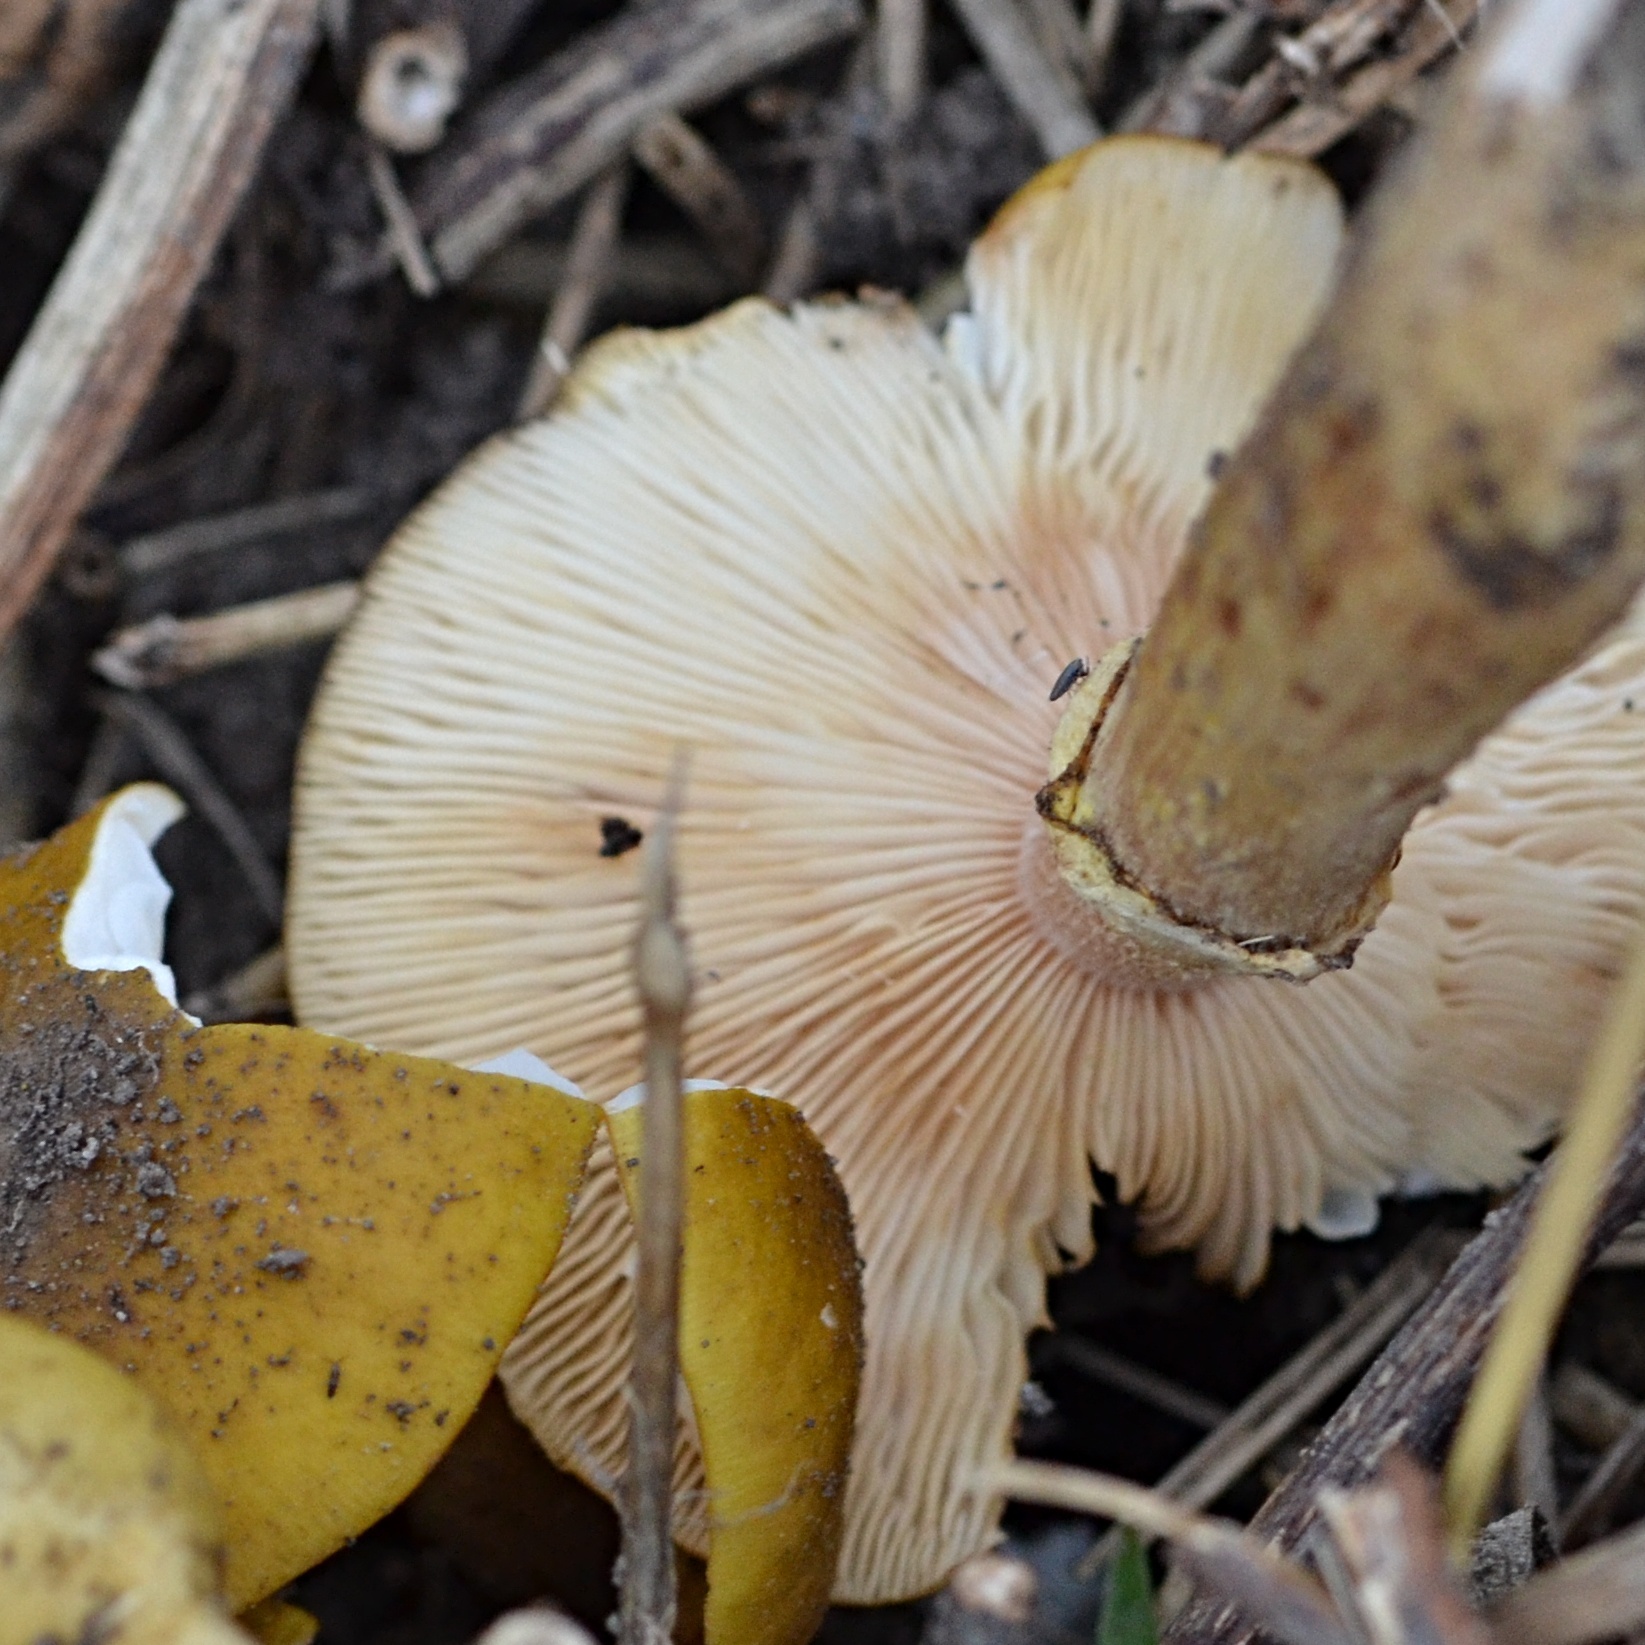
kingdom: Fungi
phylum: Basidiomycota
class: Agaricomycetes
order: Agaricales
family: Physalacriaceae
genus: Armillaria
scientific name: Armillaria mellea
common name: Honey fungus
